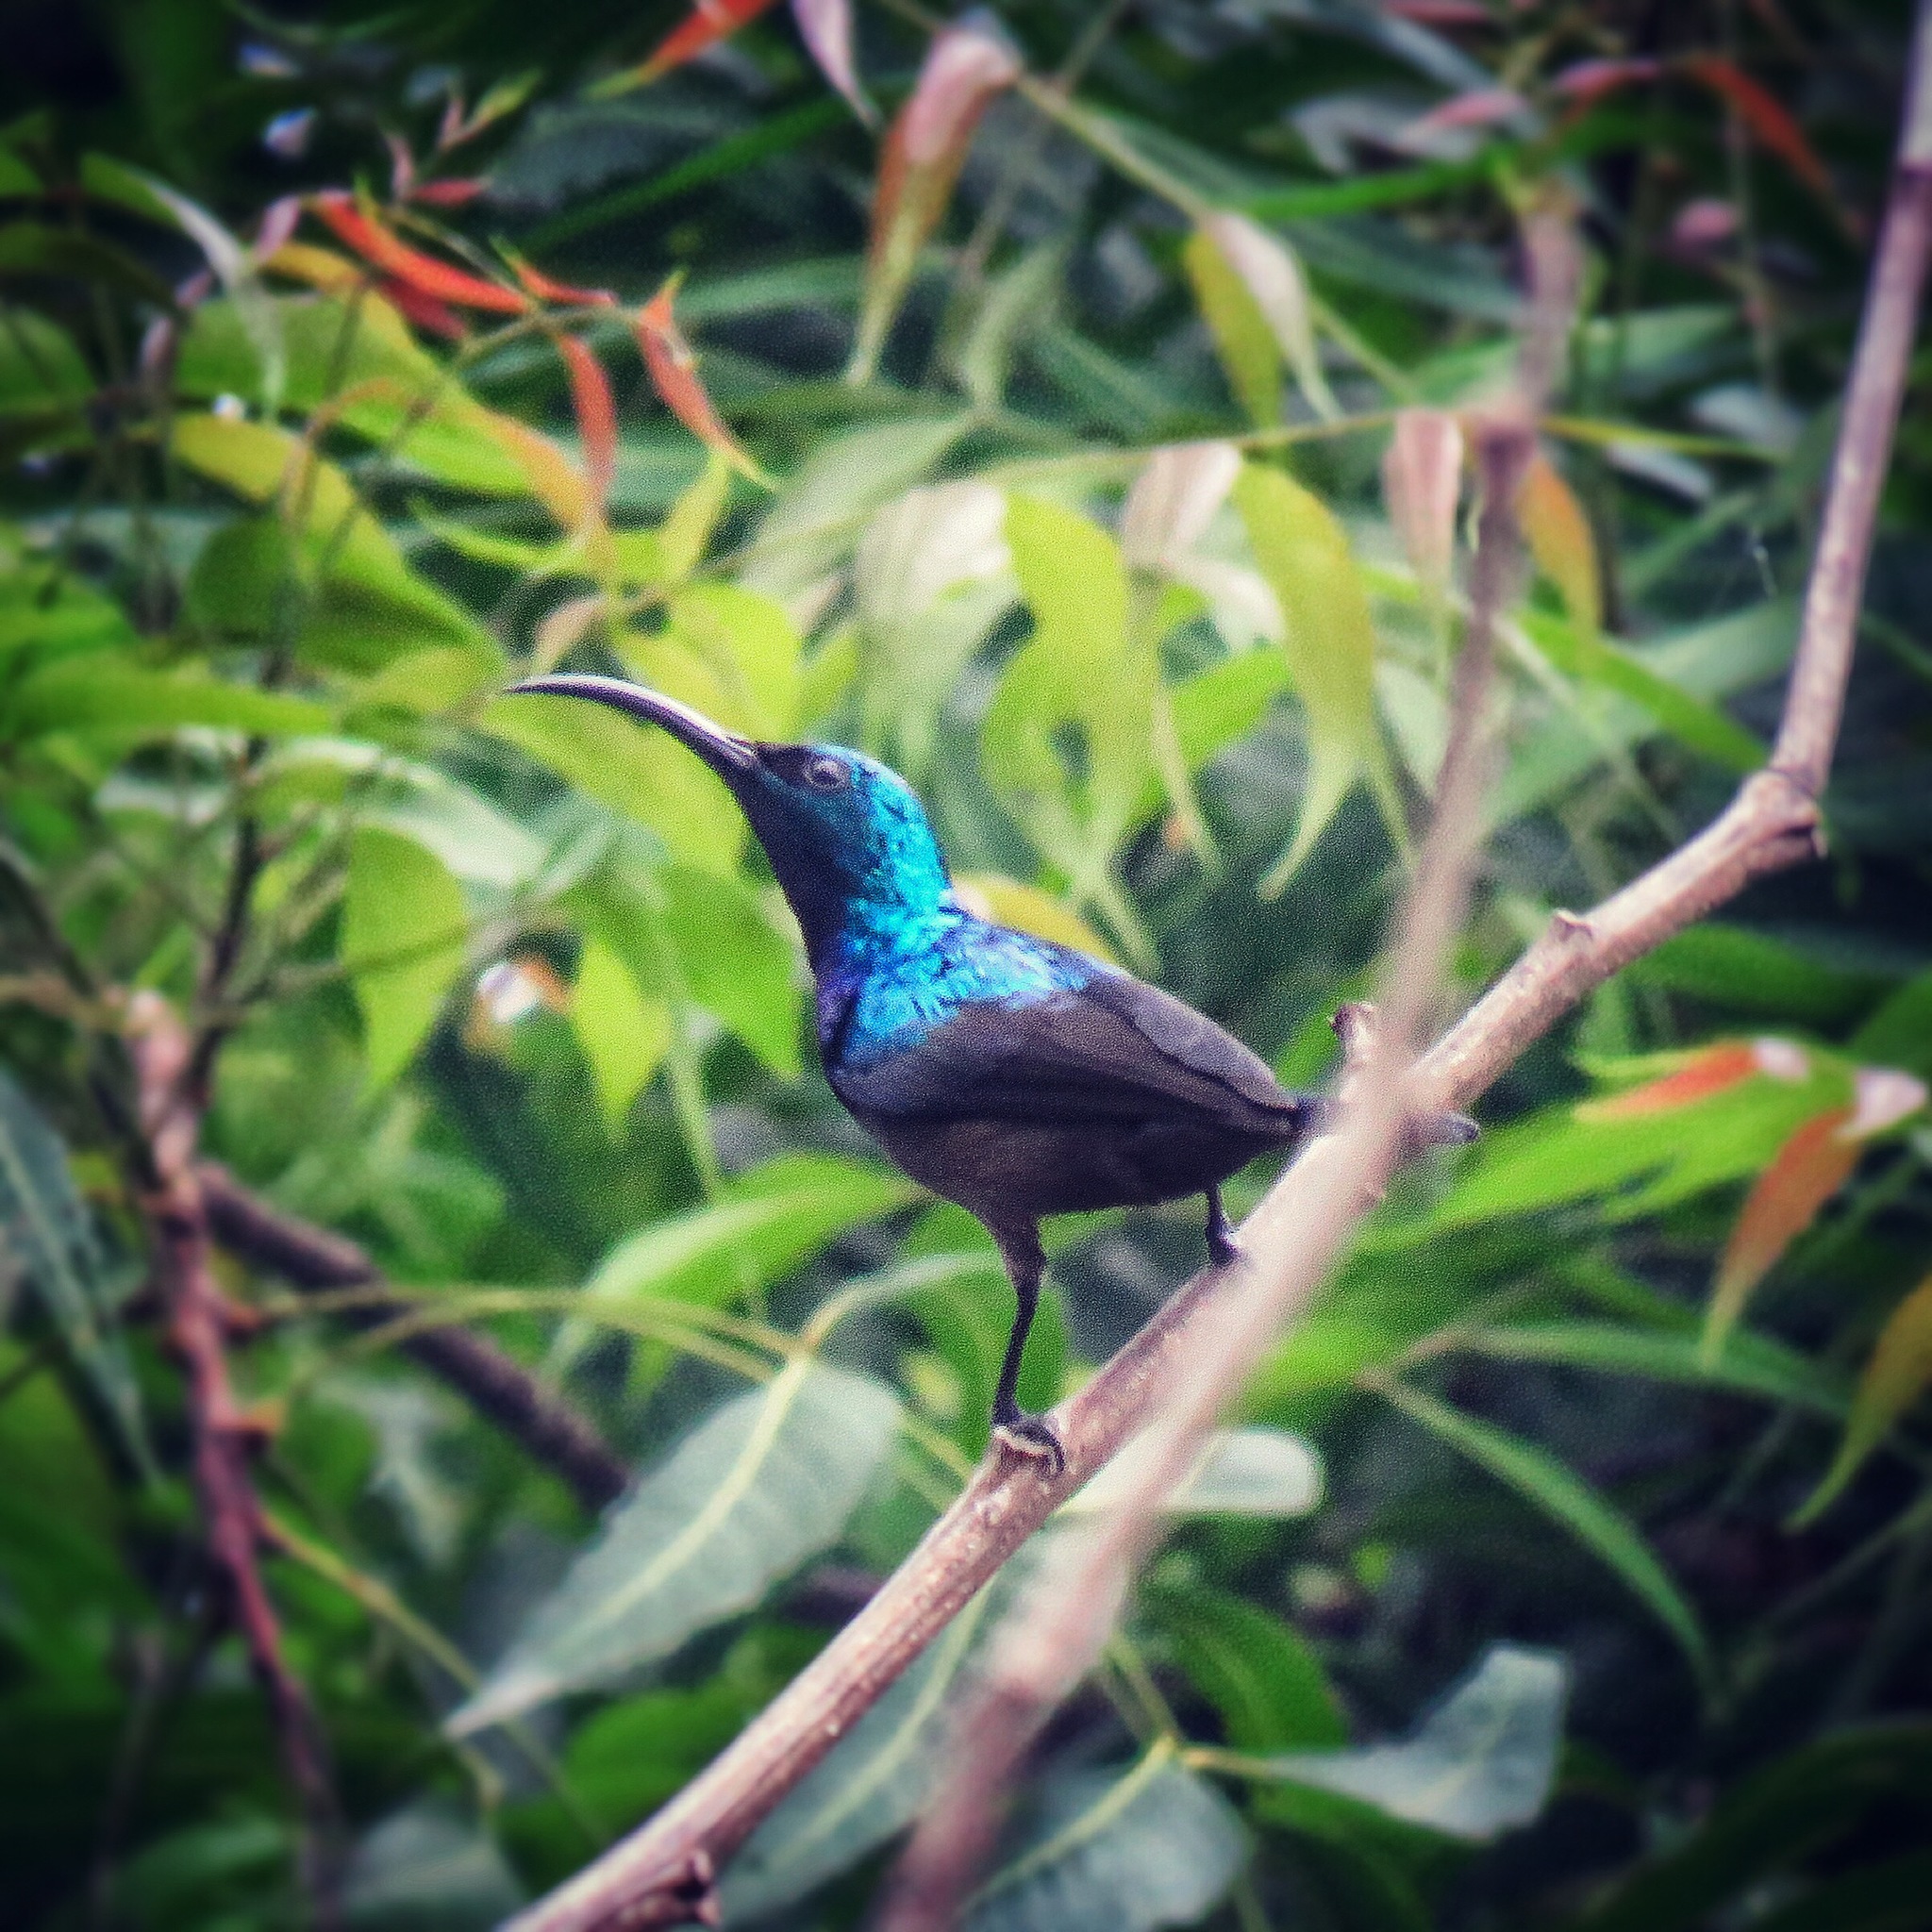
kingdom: Animalia
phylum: Chordata
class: Aves
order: Passeriformes
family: Nectariniidae
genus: Cinnyris
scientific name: Cinnyris asiaticus
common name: Purple sunbird
